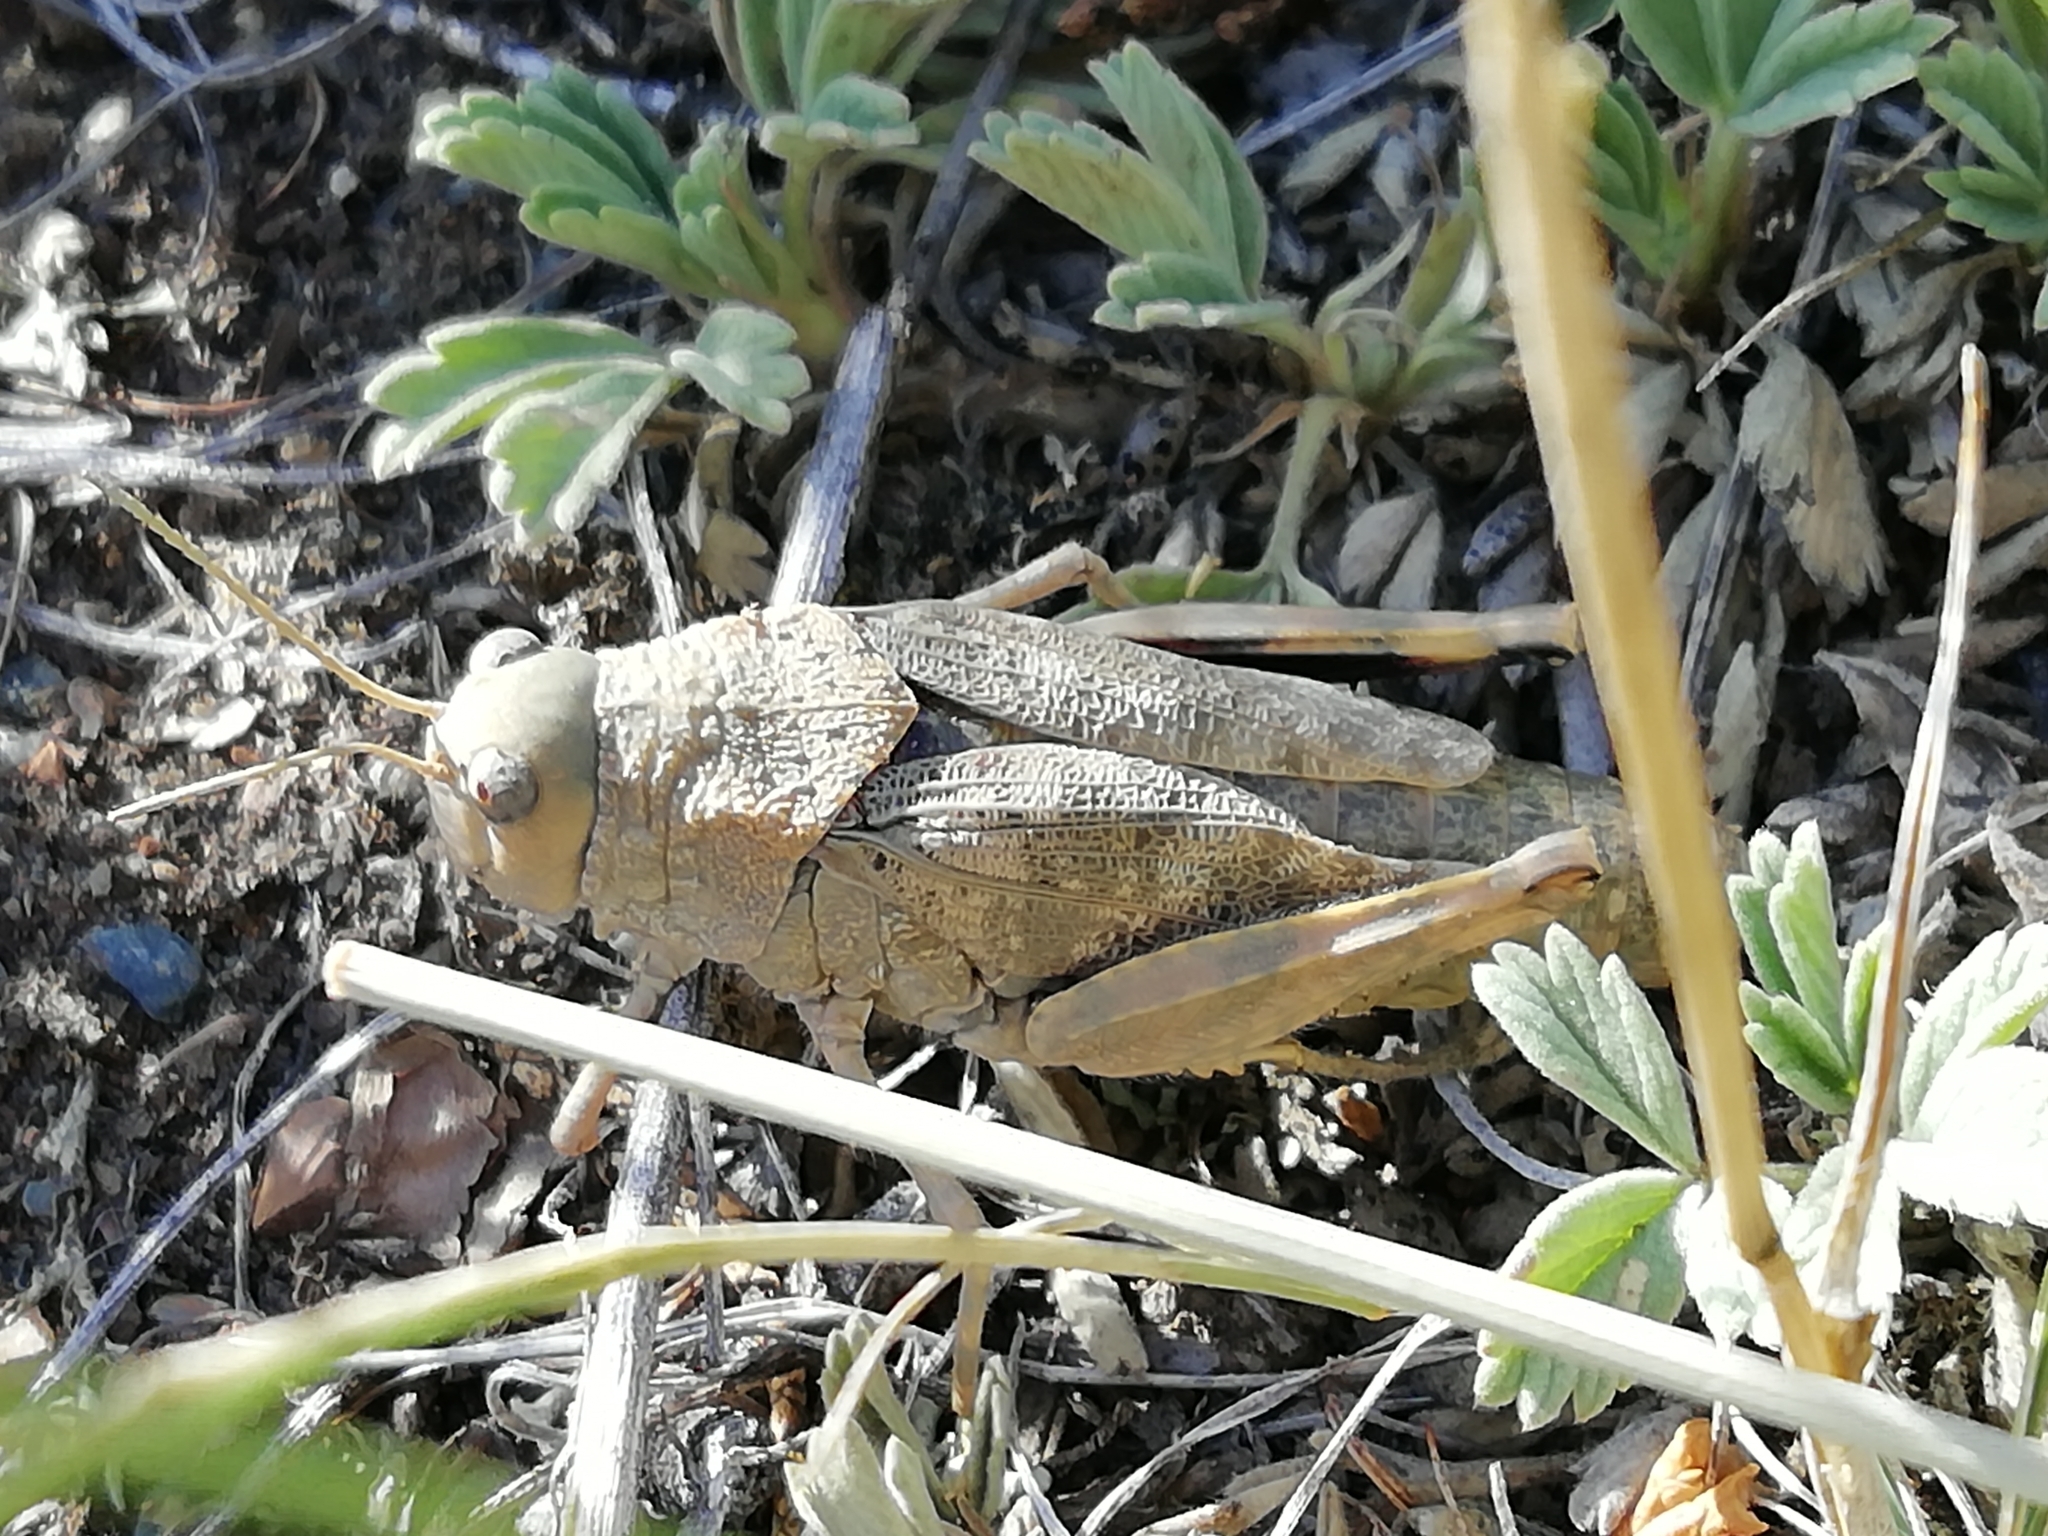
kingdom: Animalia
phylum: Arthropoda
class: Insecta
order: Orthoptera
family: Acrididae
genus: Bryodema
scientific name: Bryodema gebleri
